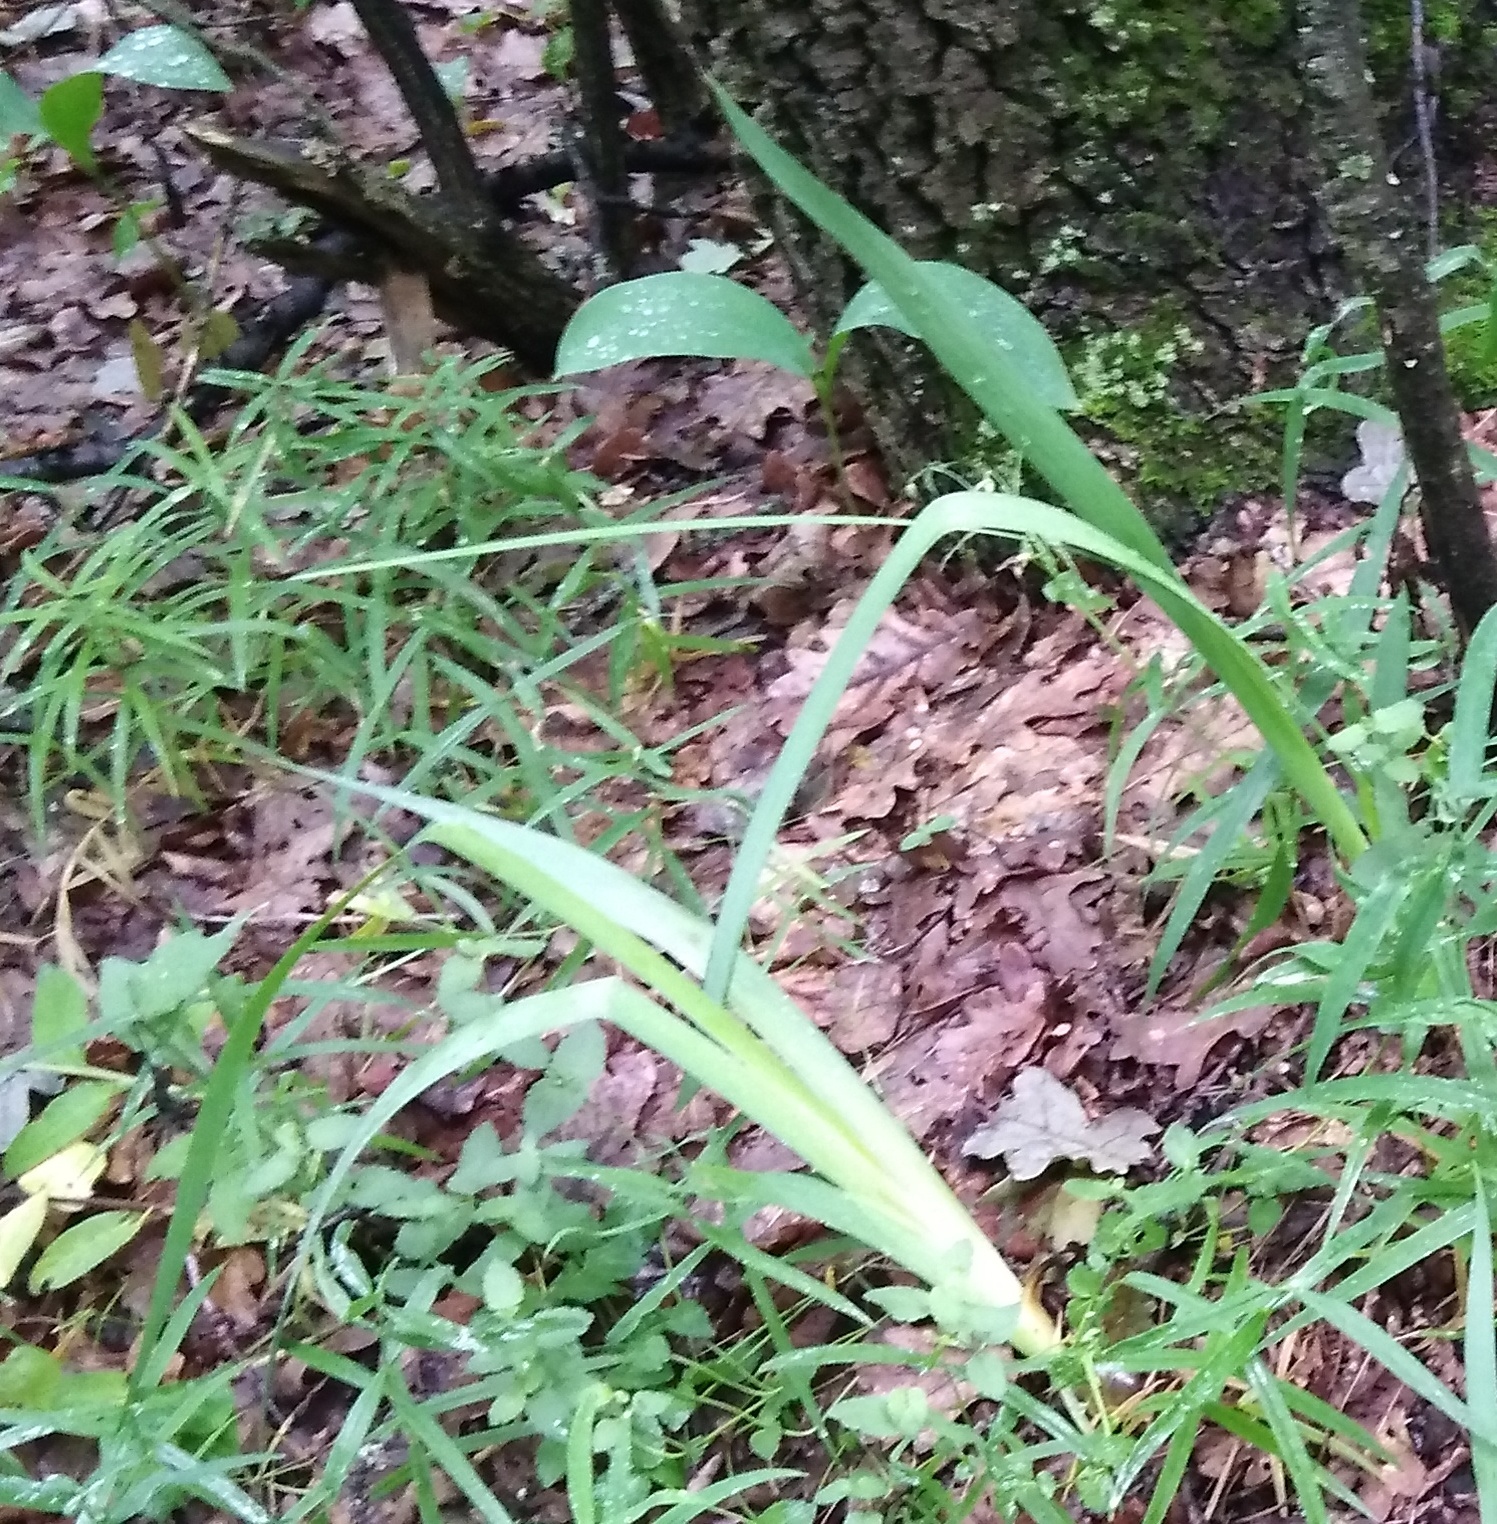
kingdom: Plantae
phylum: Tracheophyta
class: Liliopsida
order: Asparagales
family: Iridaceae
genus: Iris
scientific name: Iris aphylla
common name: Stool iris
